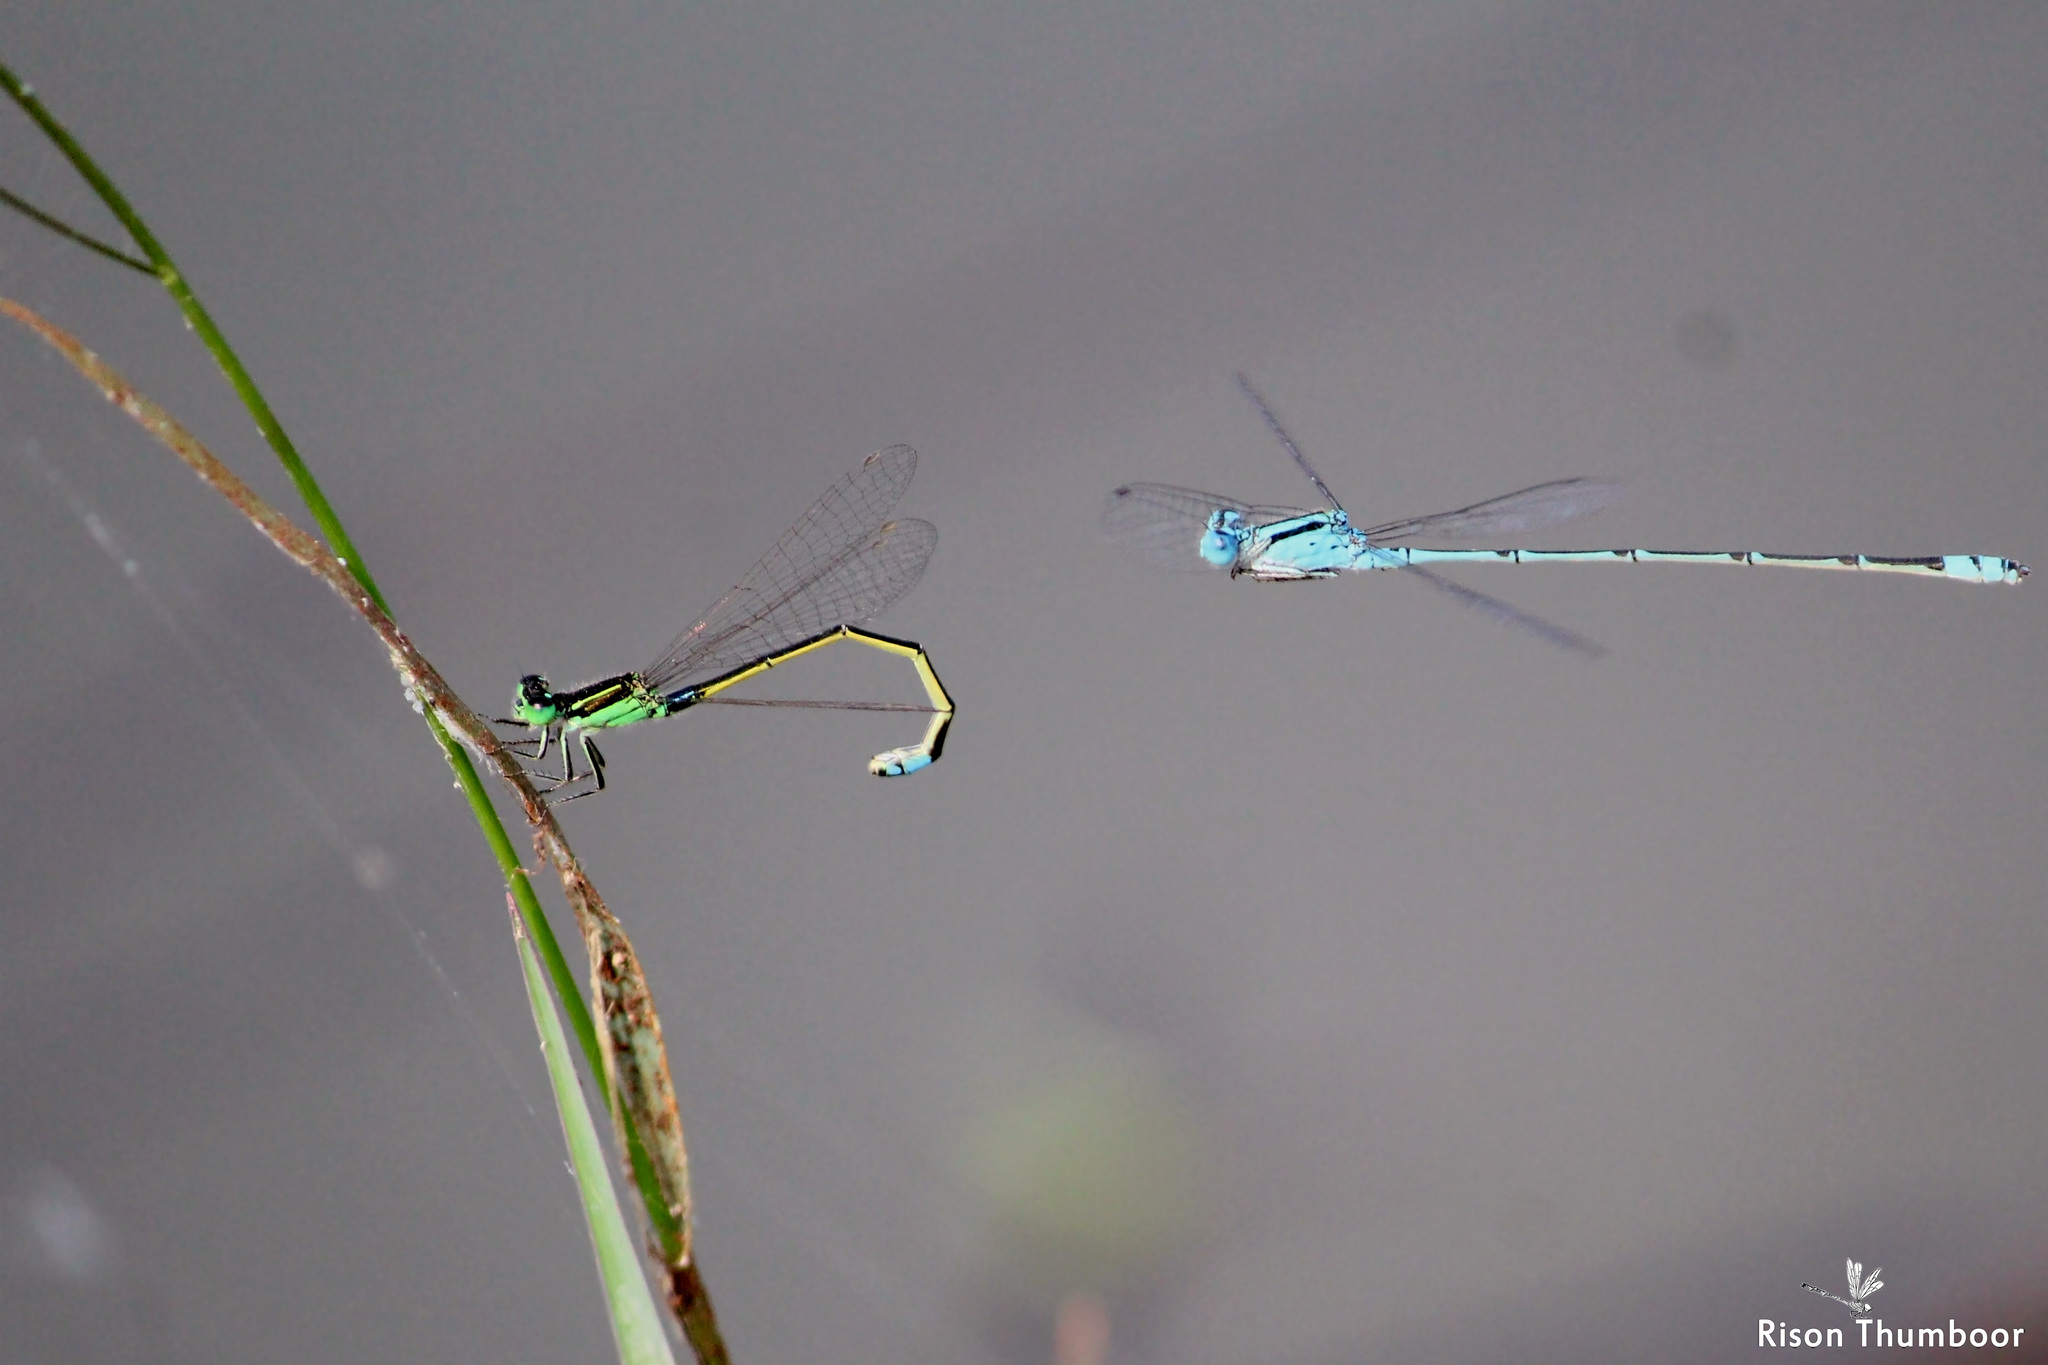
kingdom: Animalia
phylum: Arthropoda
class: Insecta
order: Odonata
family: Coenagrionidae
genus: Ischnura
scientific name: Ischnura senegalensis
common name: Tropical bluetail
